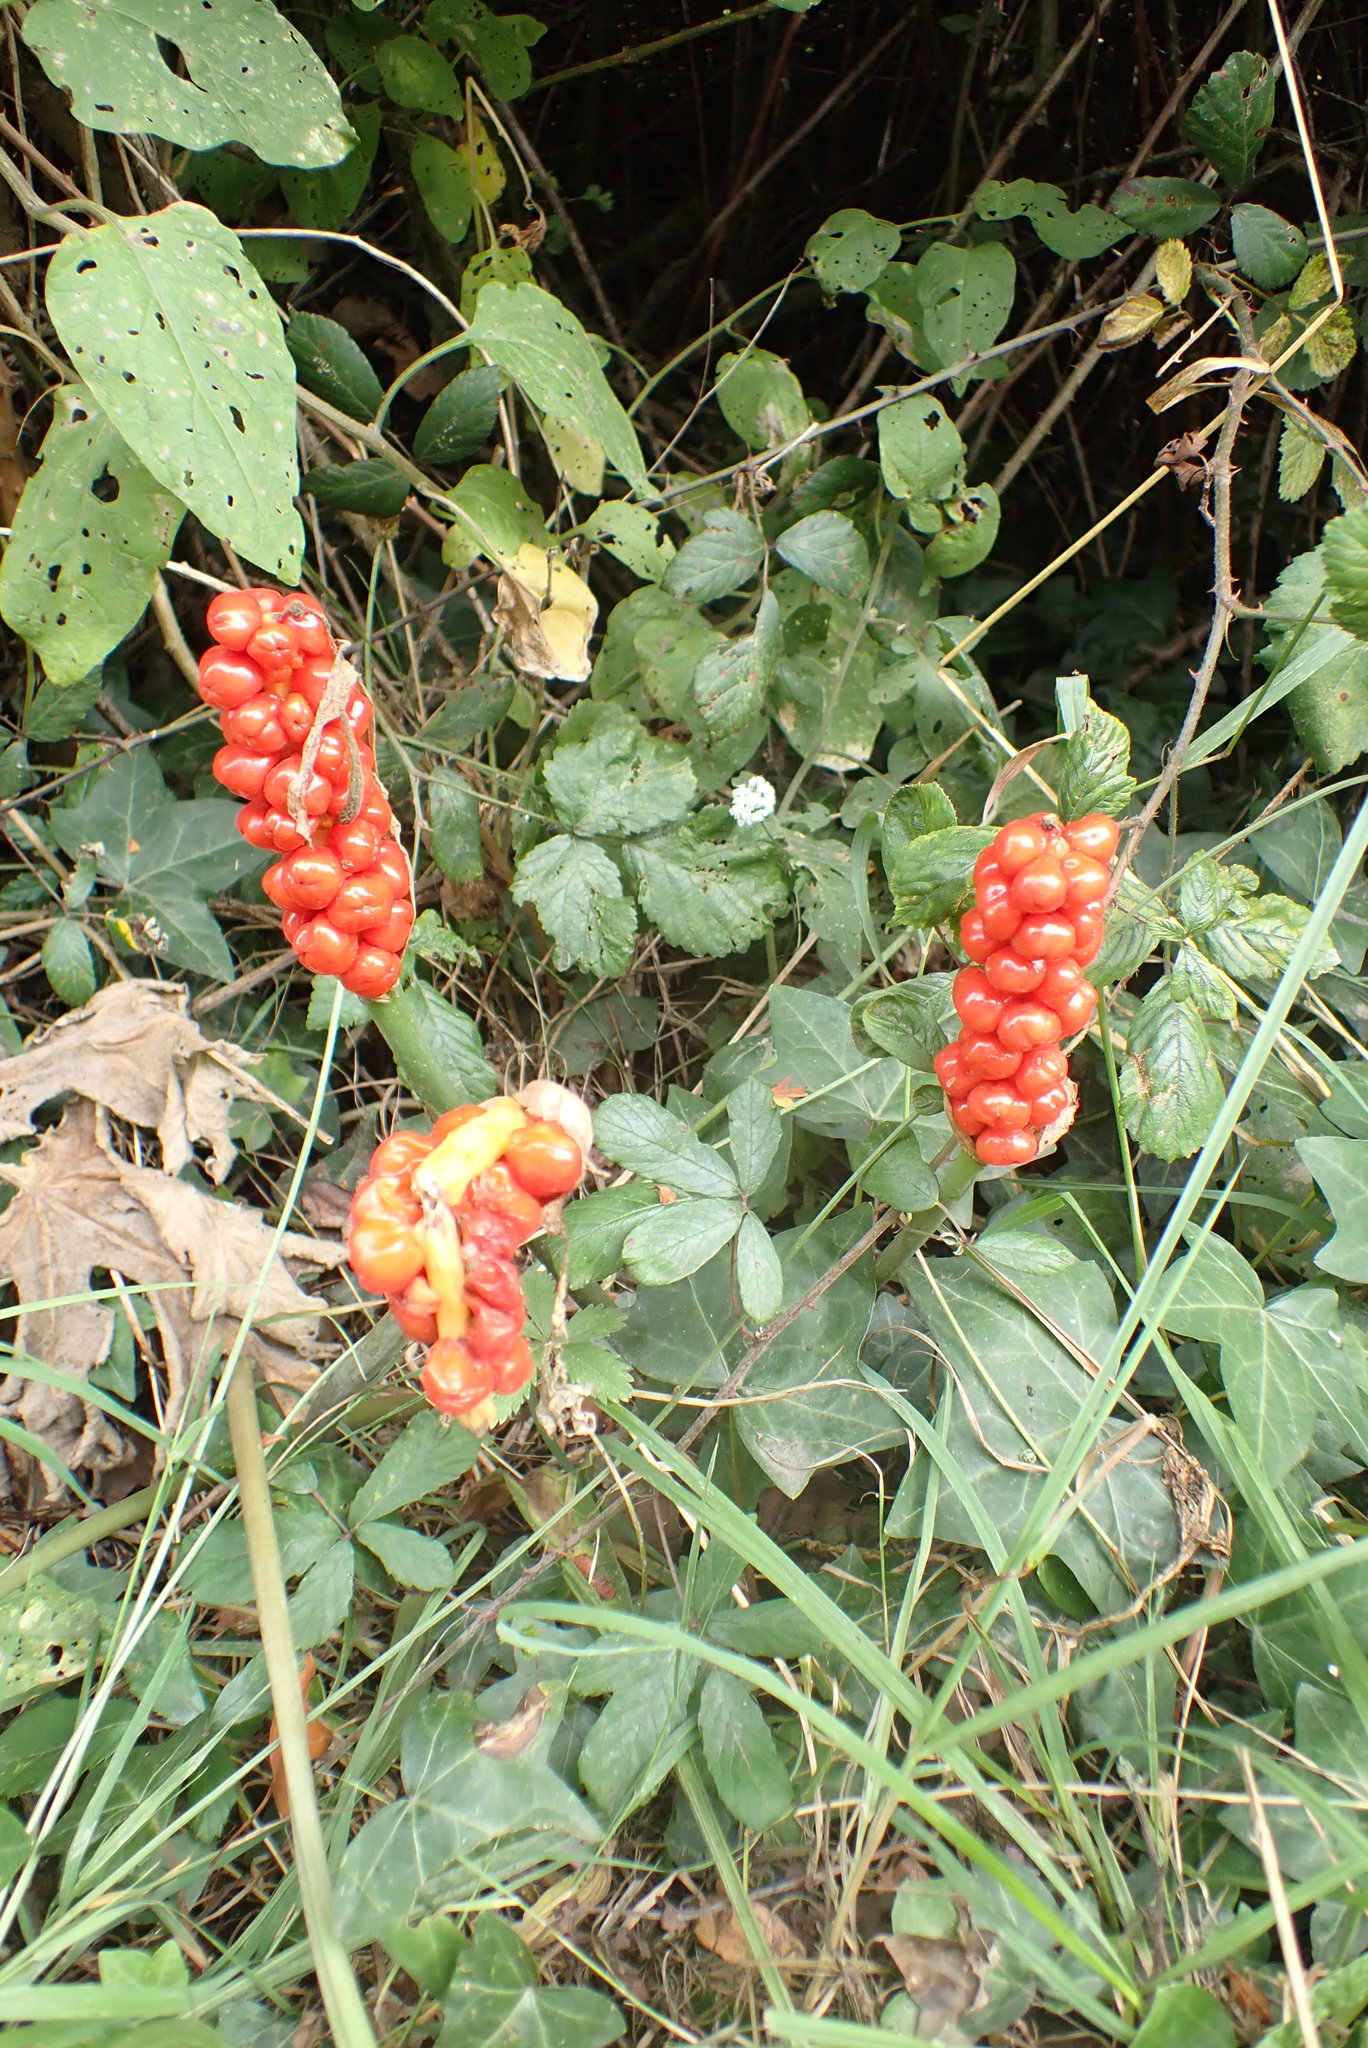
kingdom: Plantae
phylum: Tracheophyta
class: Liliopsida
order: Alismatales
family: Araceae
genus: Arum
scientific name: Arum maculatum
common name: Lords-and-ladies
